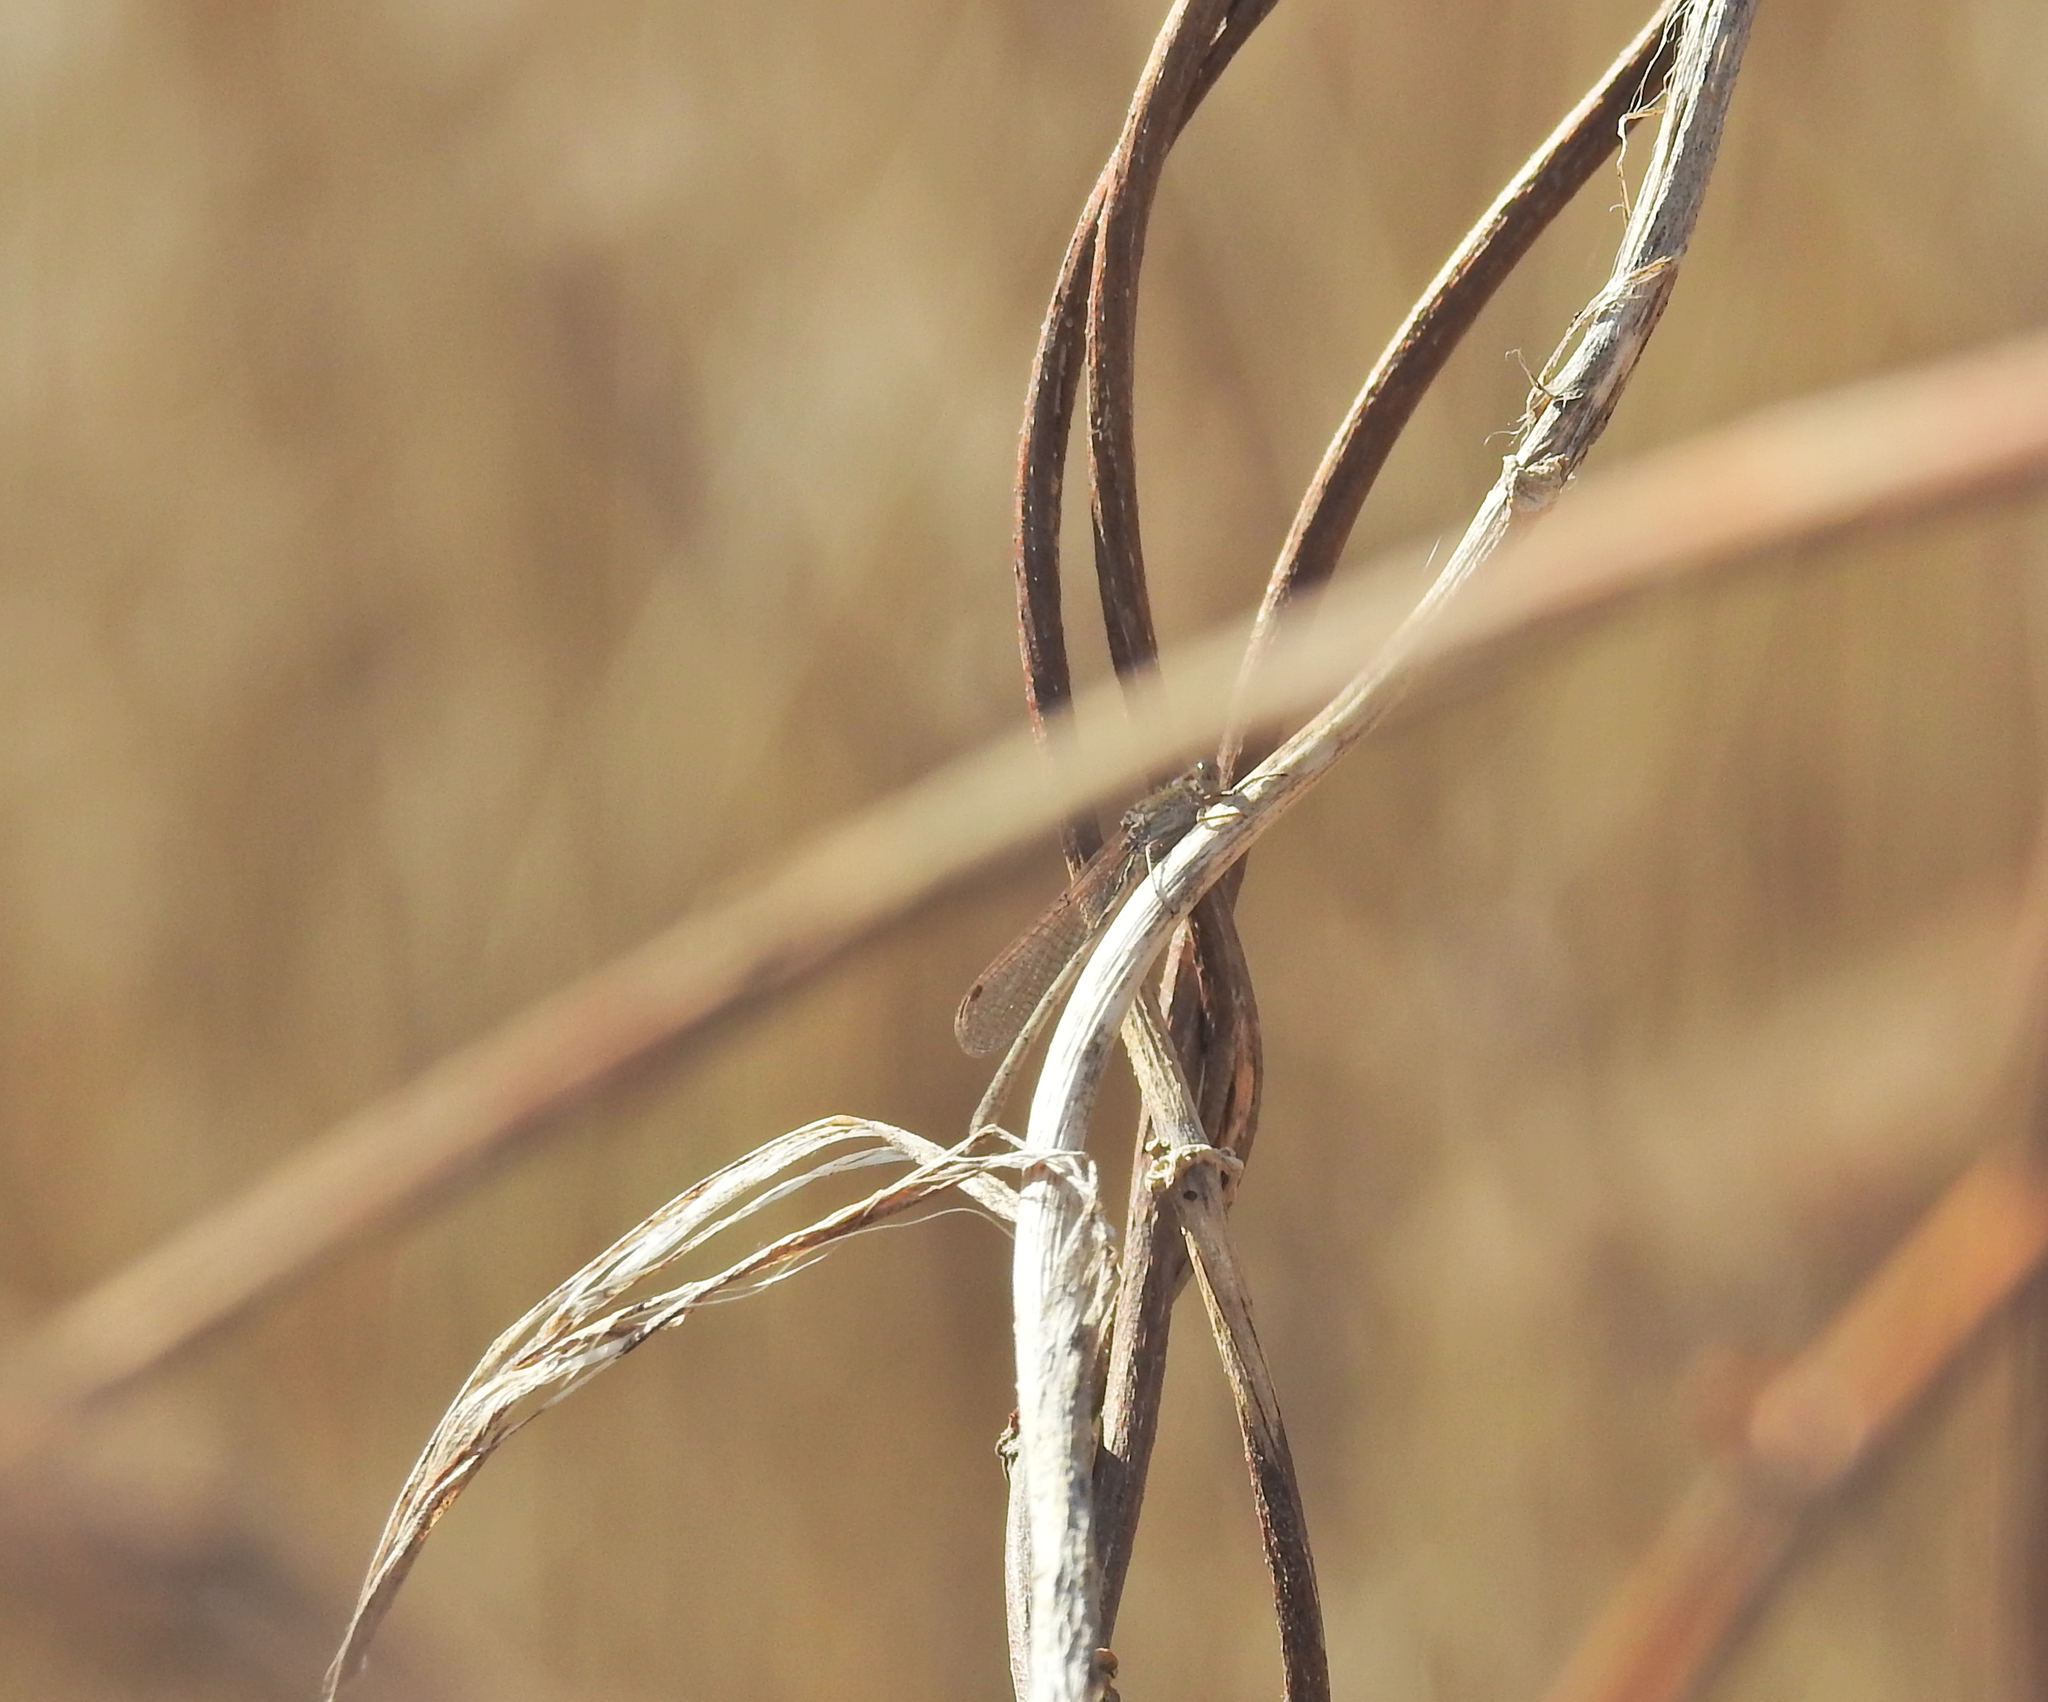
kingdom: Animalia
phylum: Arthropoda
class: Insecta
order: Odonata
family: Lestidae
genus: Sympecma
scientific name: Sympecma paedisca
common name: Siberian winter damsel
